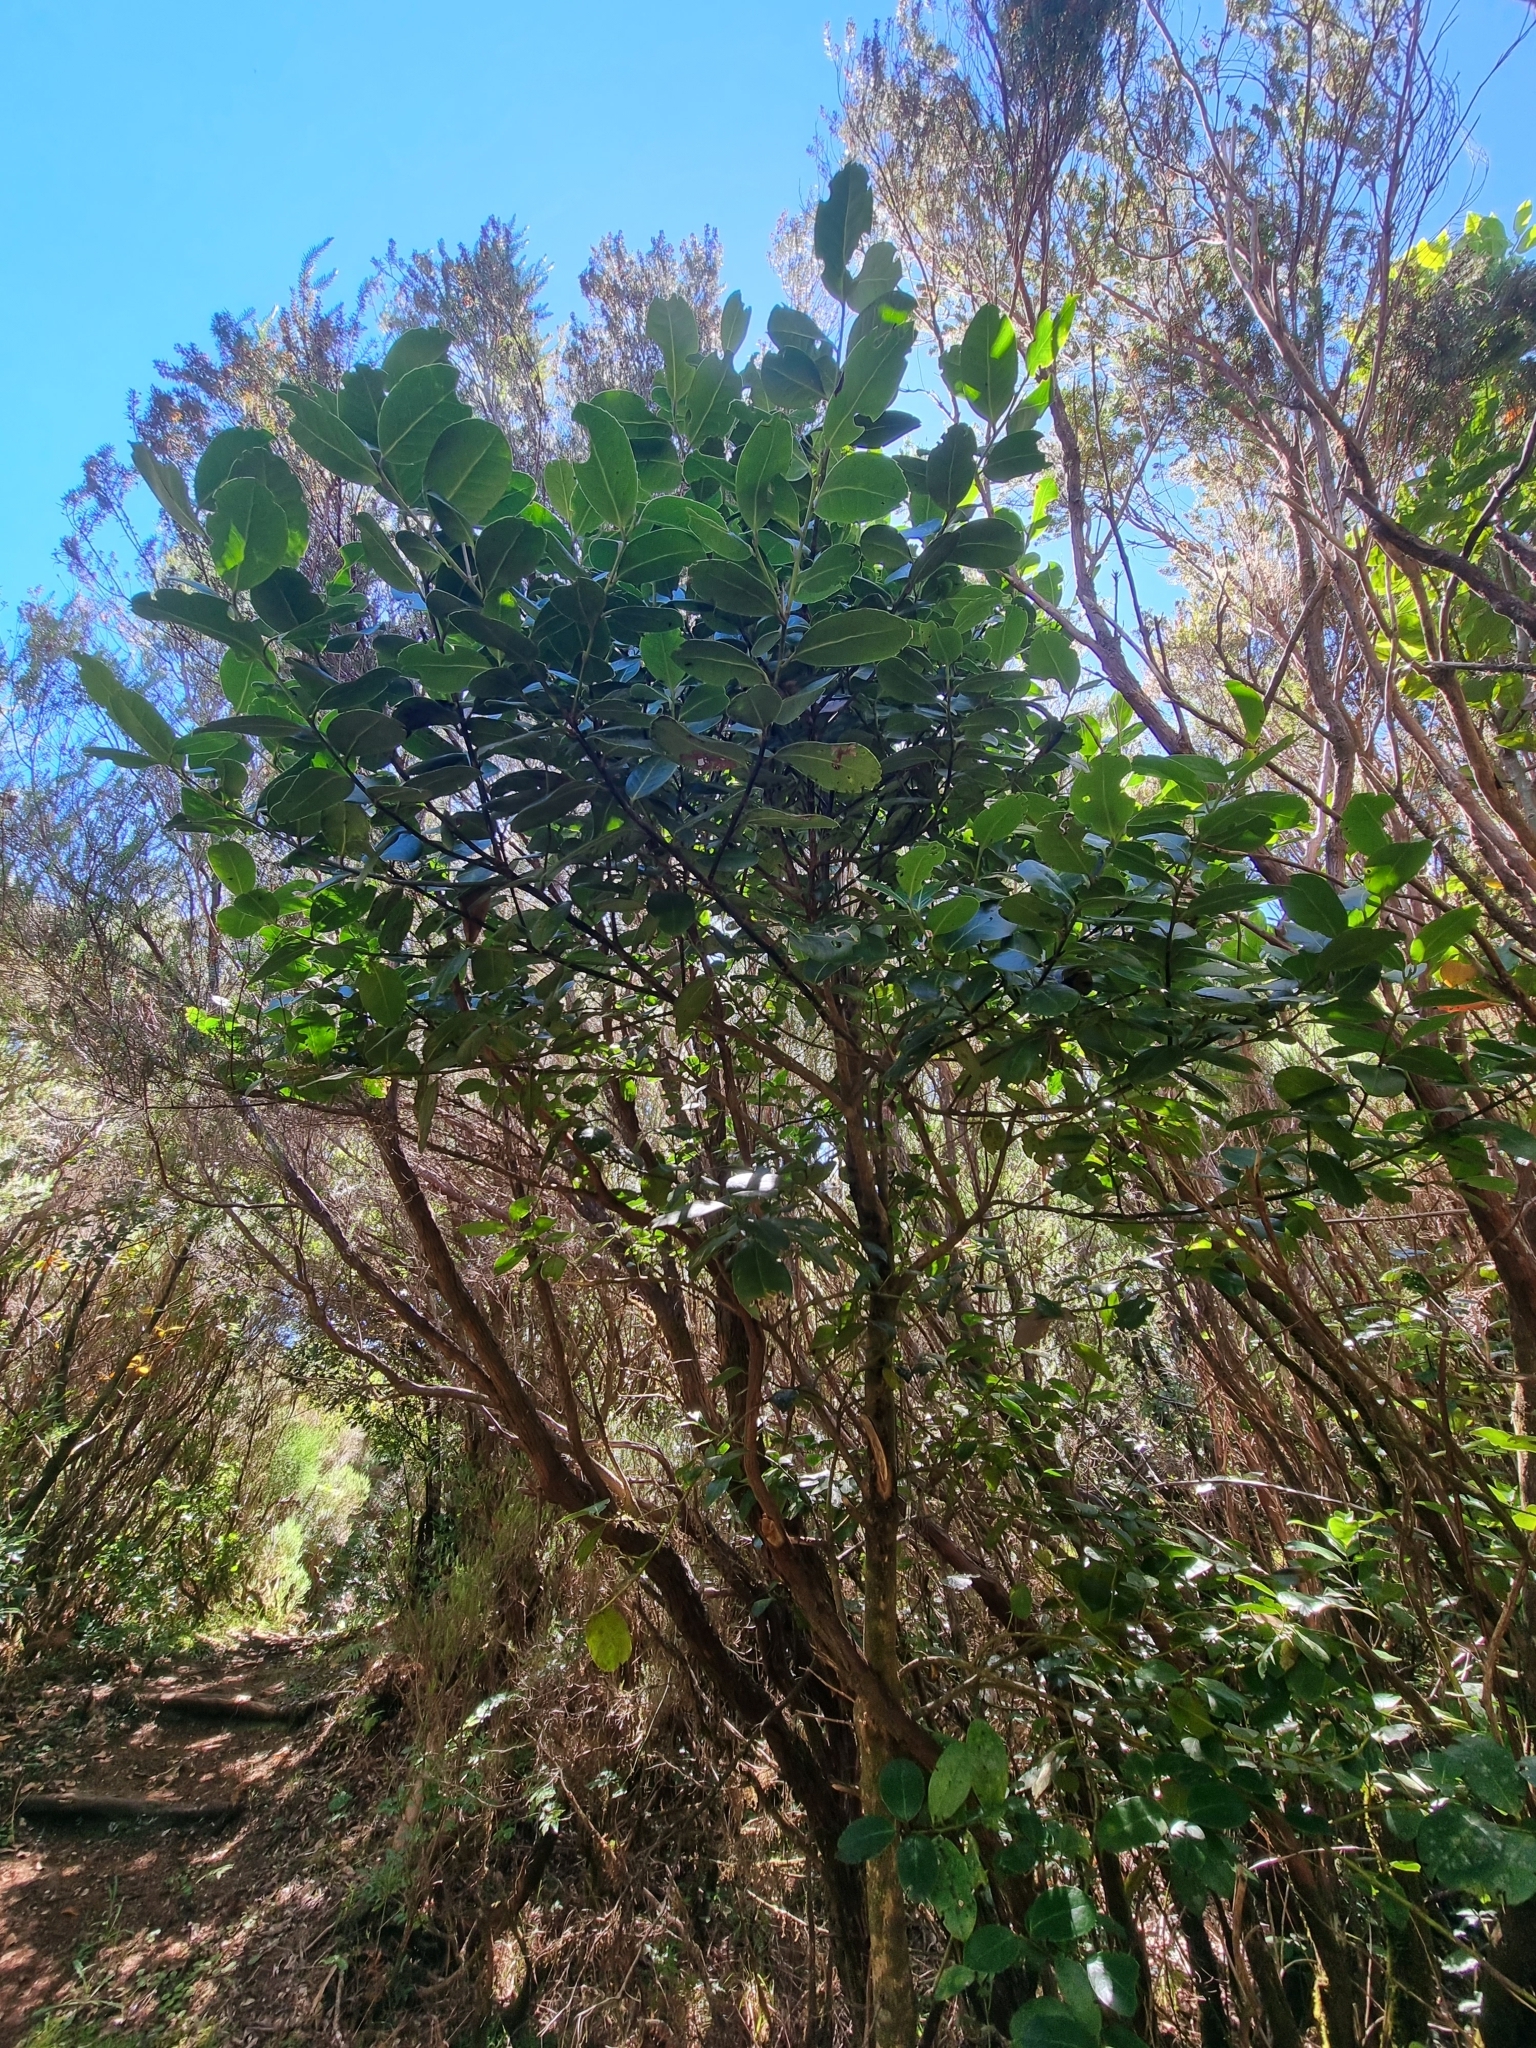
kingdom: Plantae
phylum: Tracheophyta
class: Magnoliopsida
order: Aquifoliales
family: Aquifoliaceae
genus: Ilex
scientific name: Ilex perado
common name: Madeira holly
